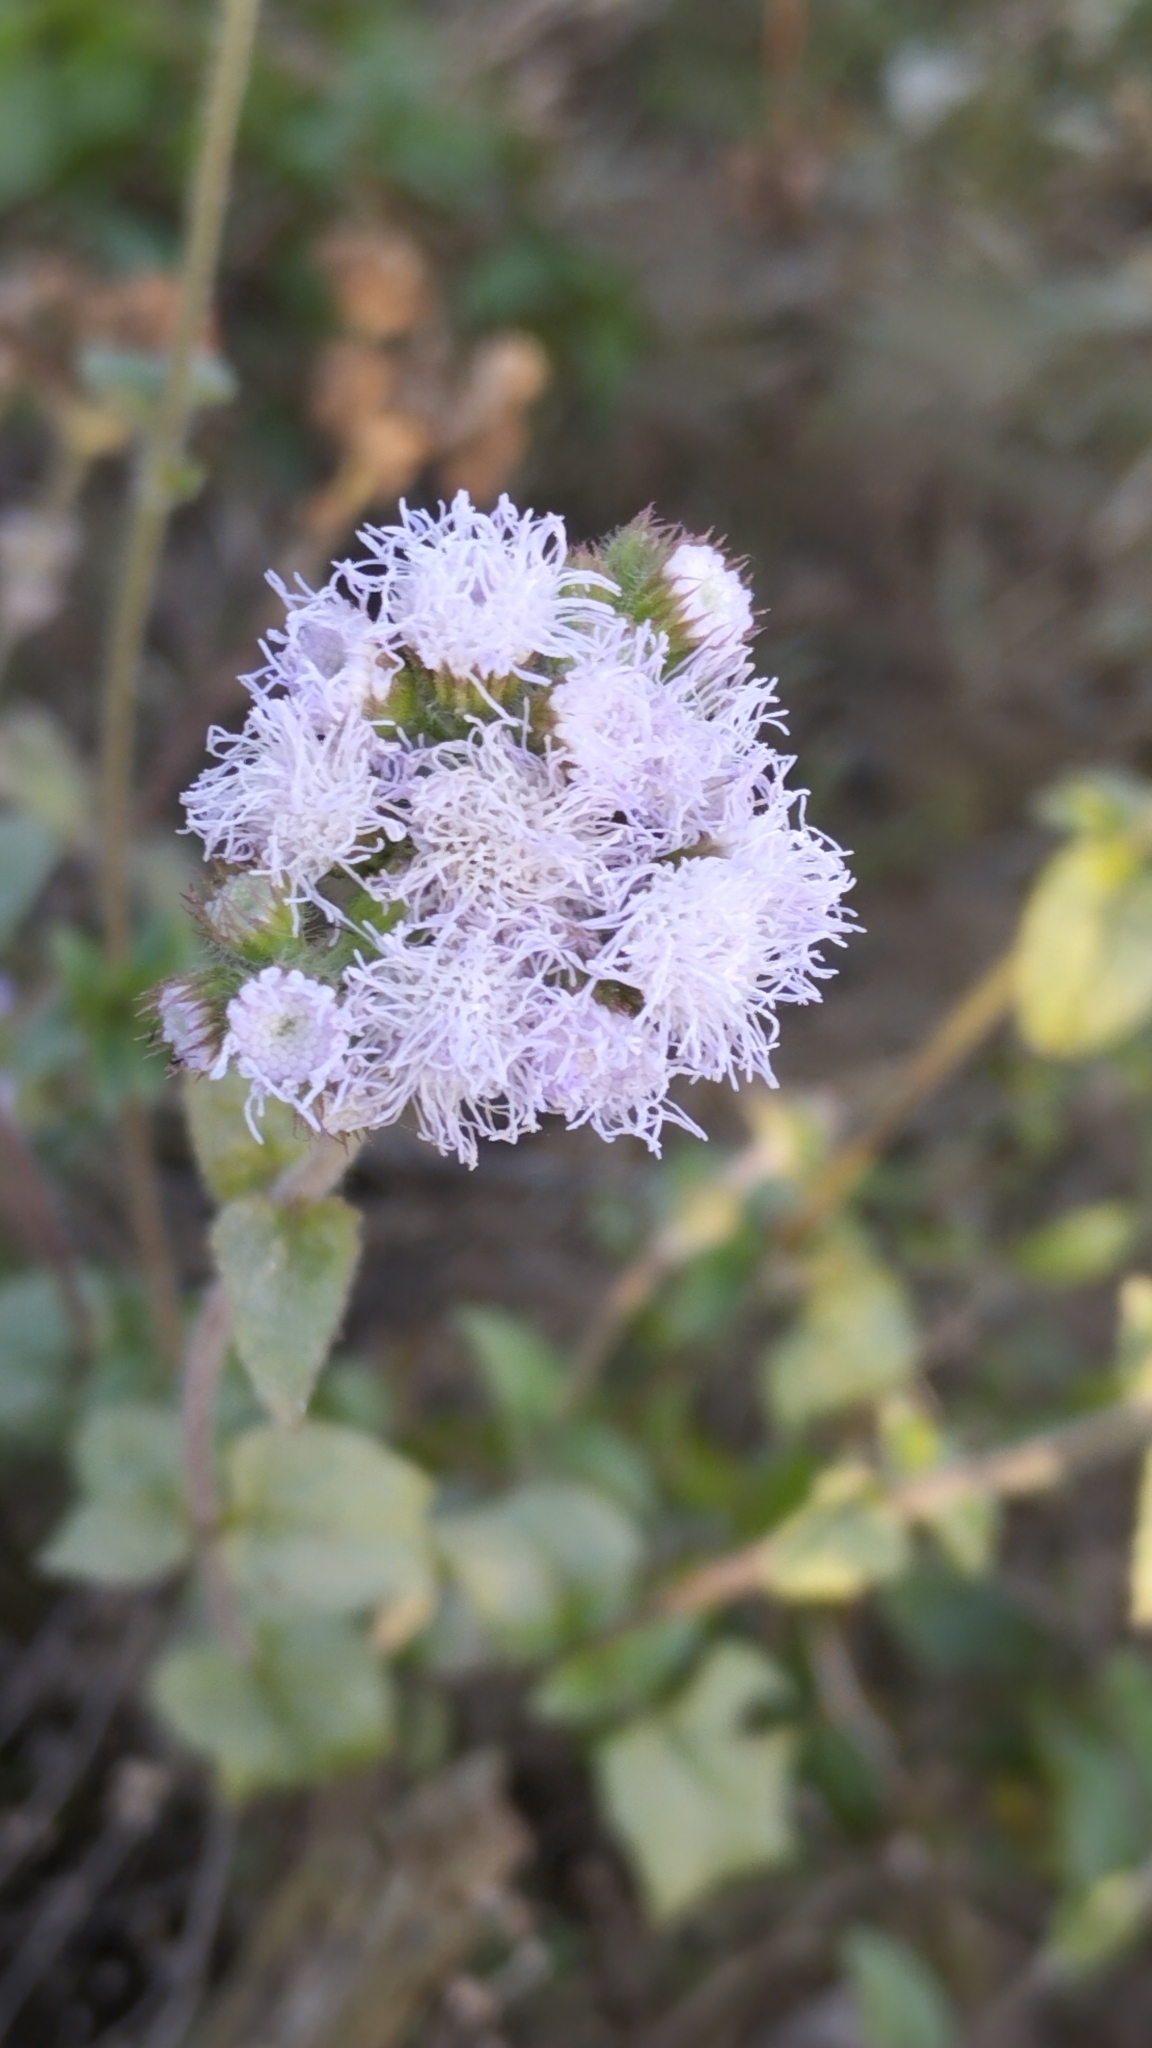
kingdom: Plantae
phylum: Tracheophyta
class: Magnoliopsida
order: Asterales
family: Asteraceae
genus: Ageratum
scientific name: Ageratum houstonianum
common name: Bluemink
